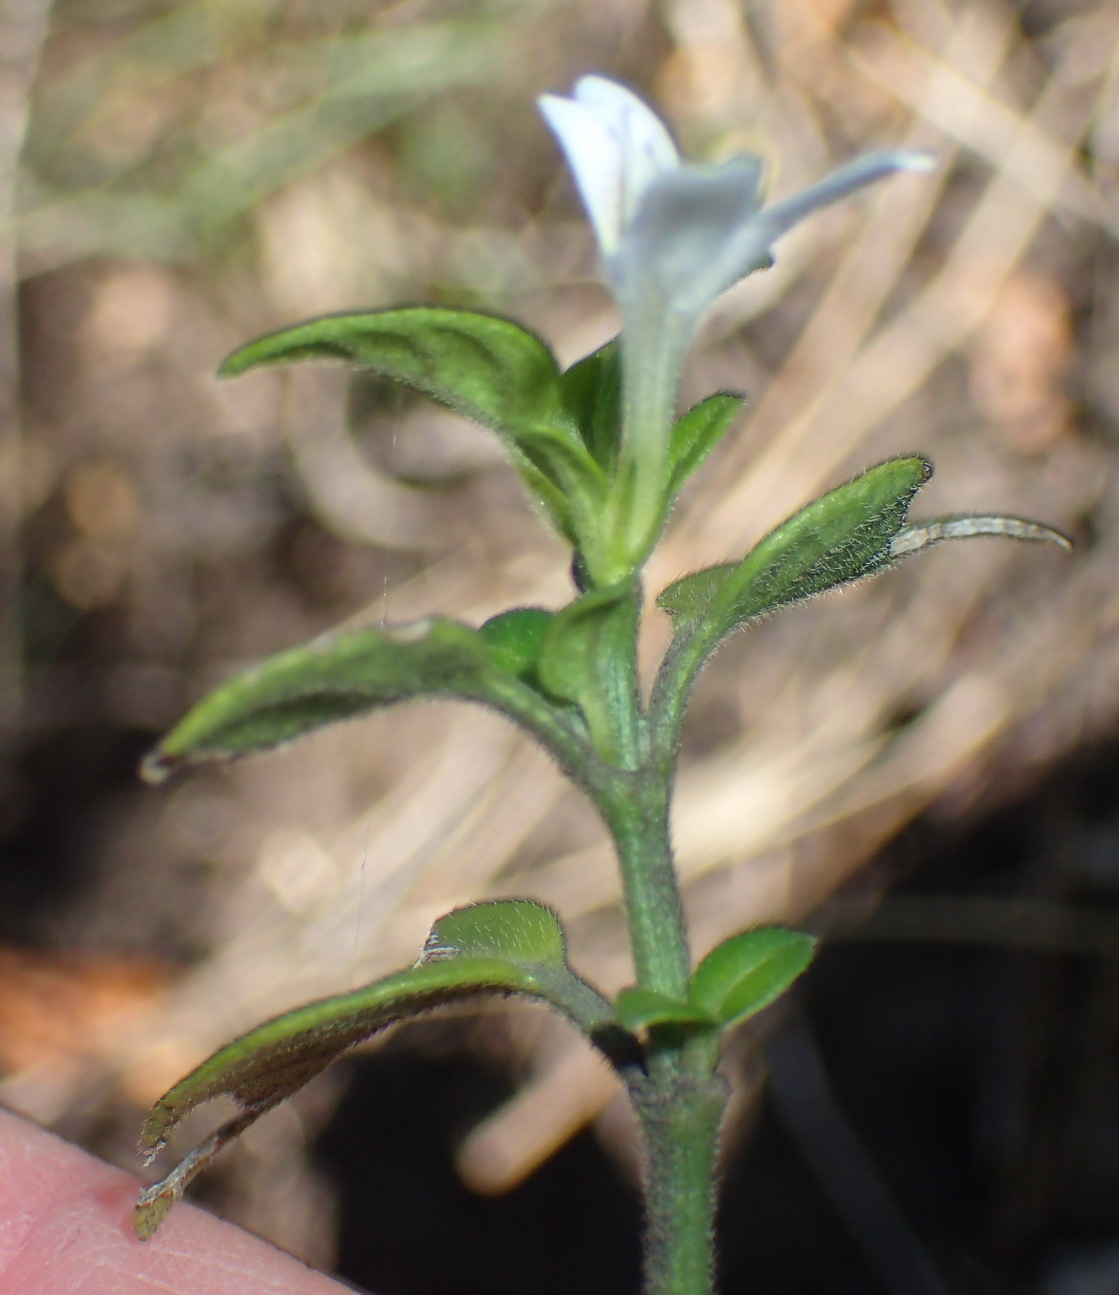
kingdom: Plantae
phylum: Tracheophyta
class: Magnoliopsida
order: Lamiales
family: Acanthaceae
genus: Justicia
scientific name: Justicia tubulosa
